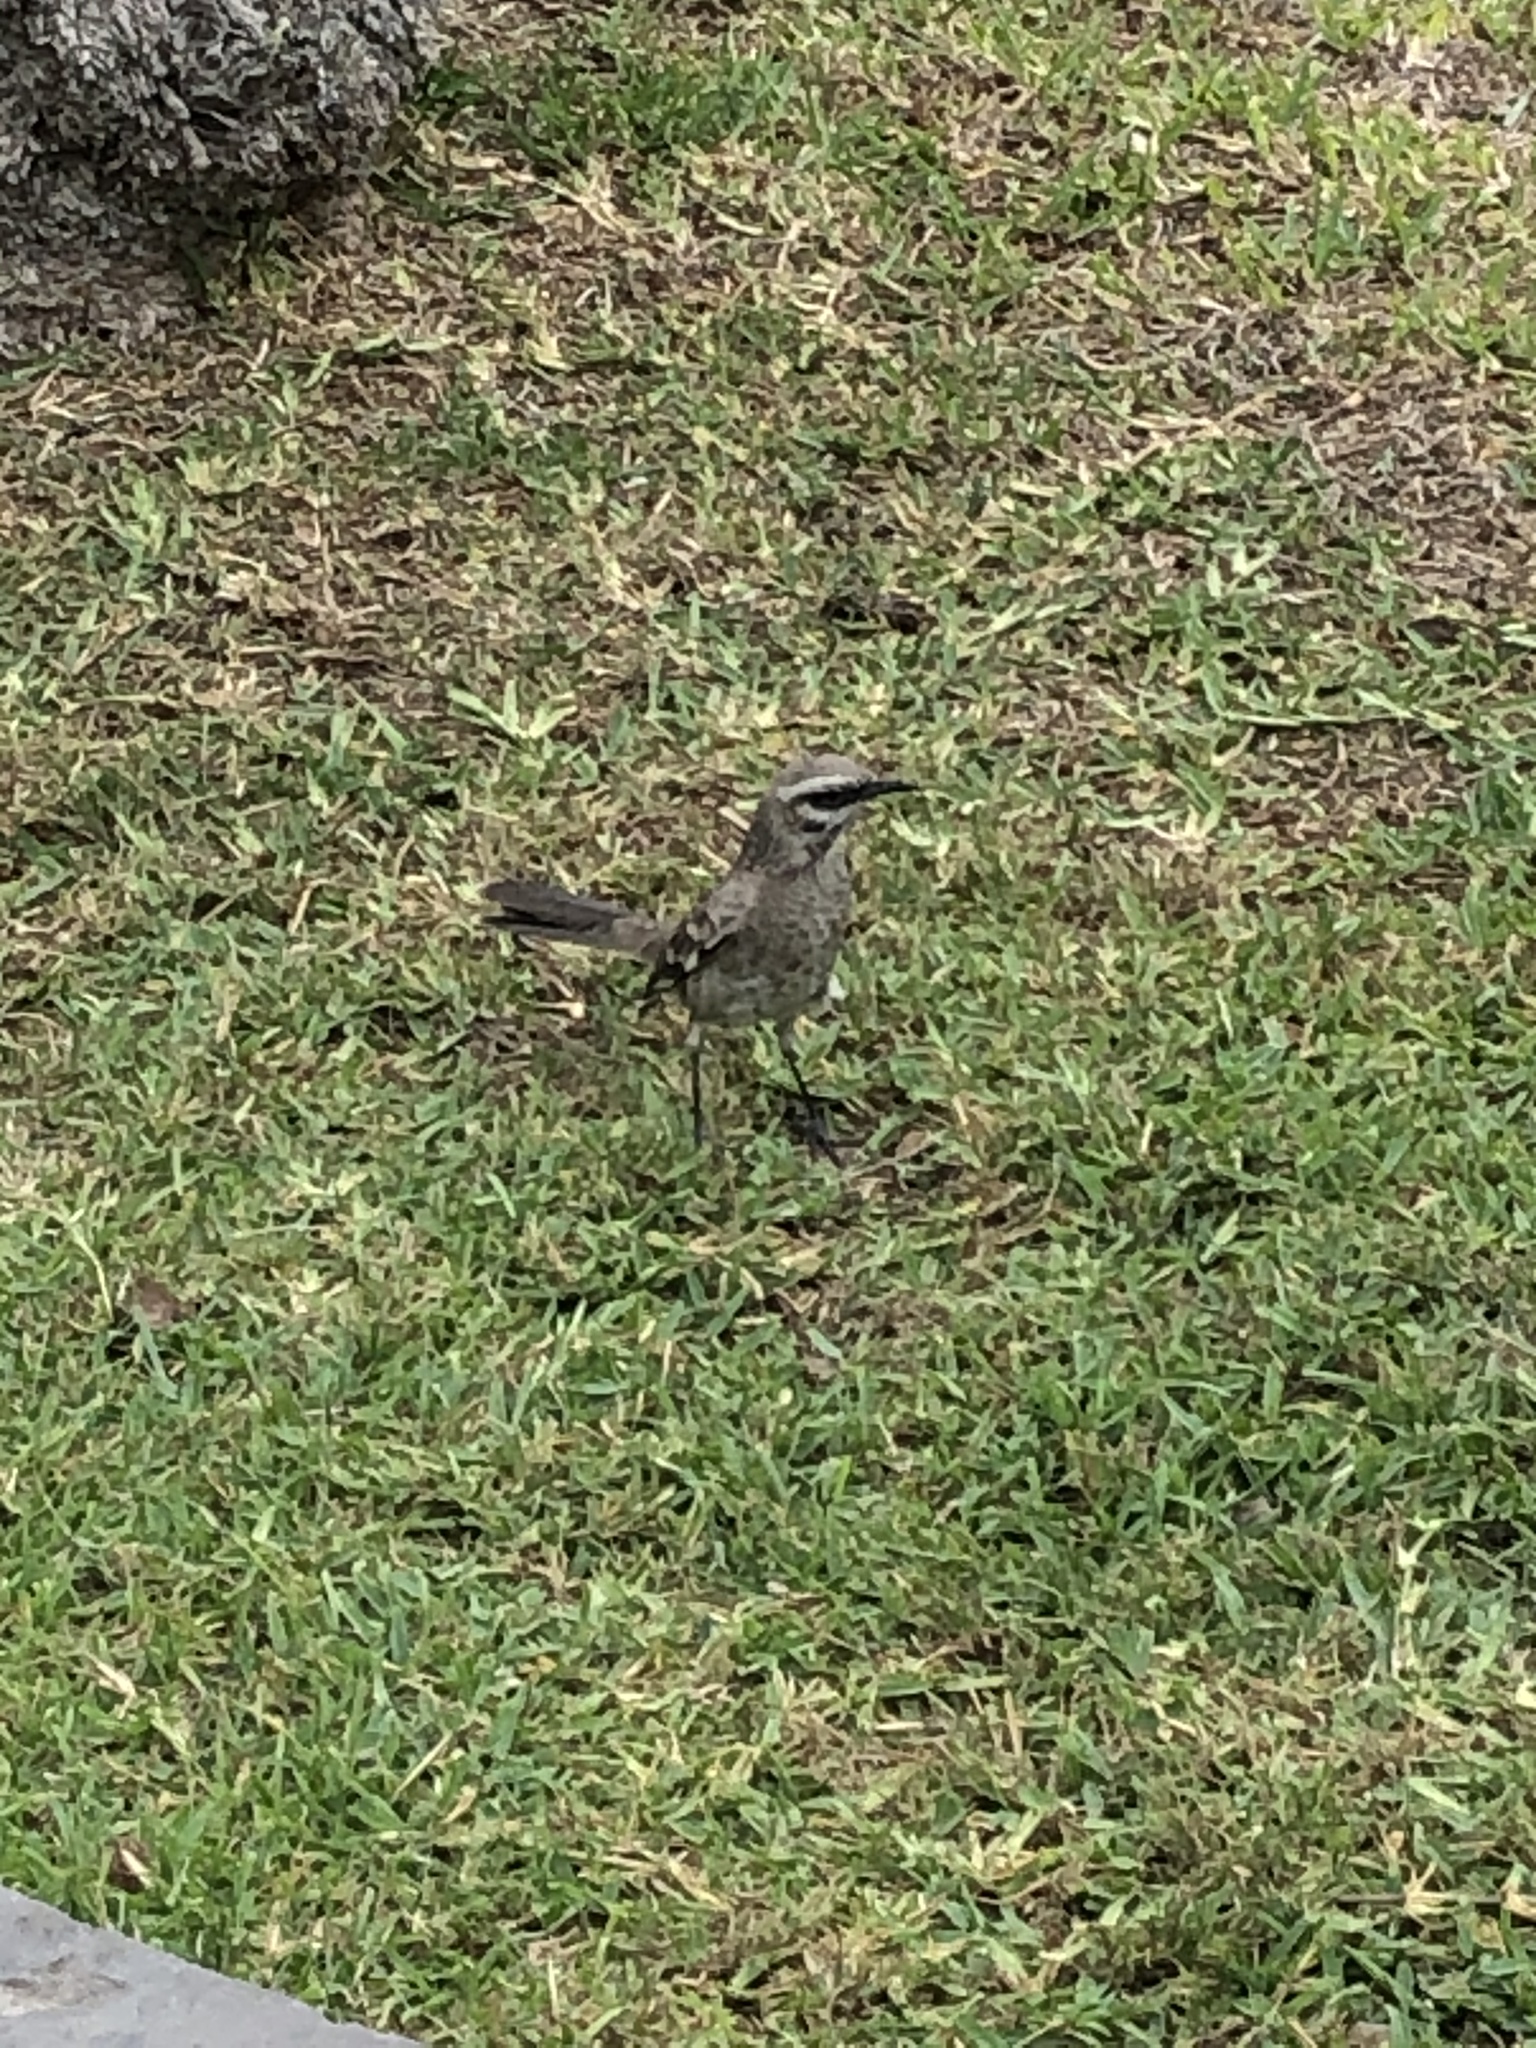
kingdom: Animalia
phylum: Chordata
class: Aves
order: Passeriformes
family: Mimidae
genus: Mimus
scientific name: Mimus longicaudatus
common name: Long-tailed mockingbird
